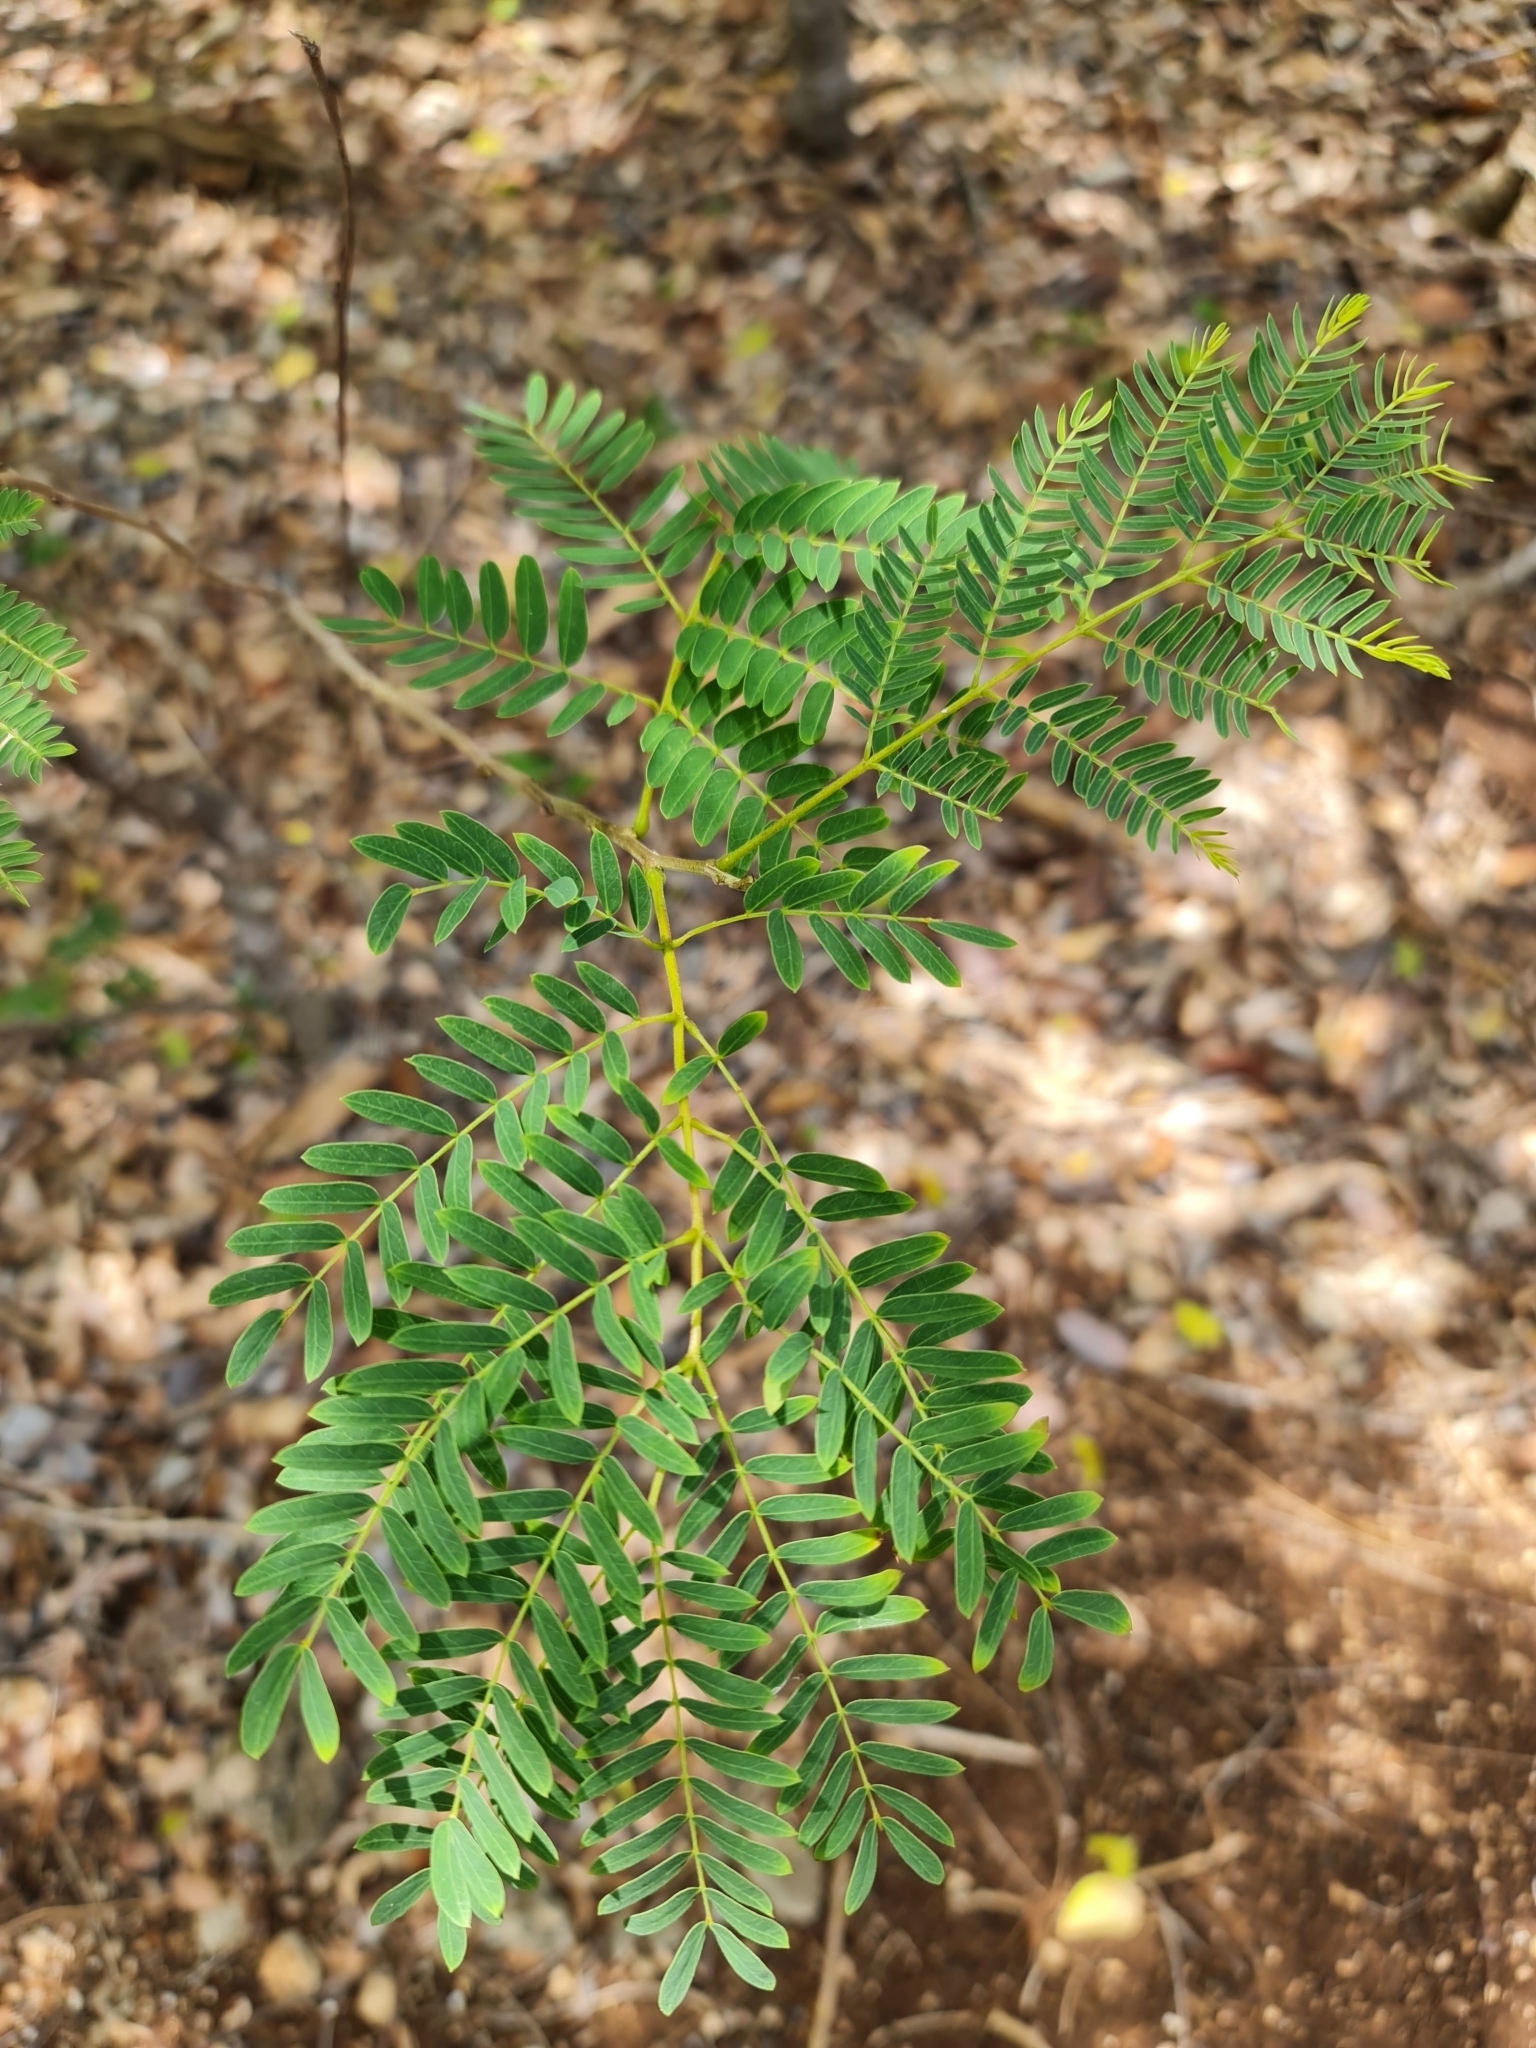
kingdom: Plantae
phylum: Tracheophyta
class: Magnoliopsida
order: Fabales
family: Fabaceae
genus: Leucaena
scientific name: Leucaena leucocephala
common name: White leadtree
